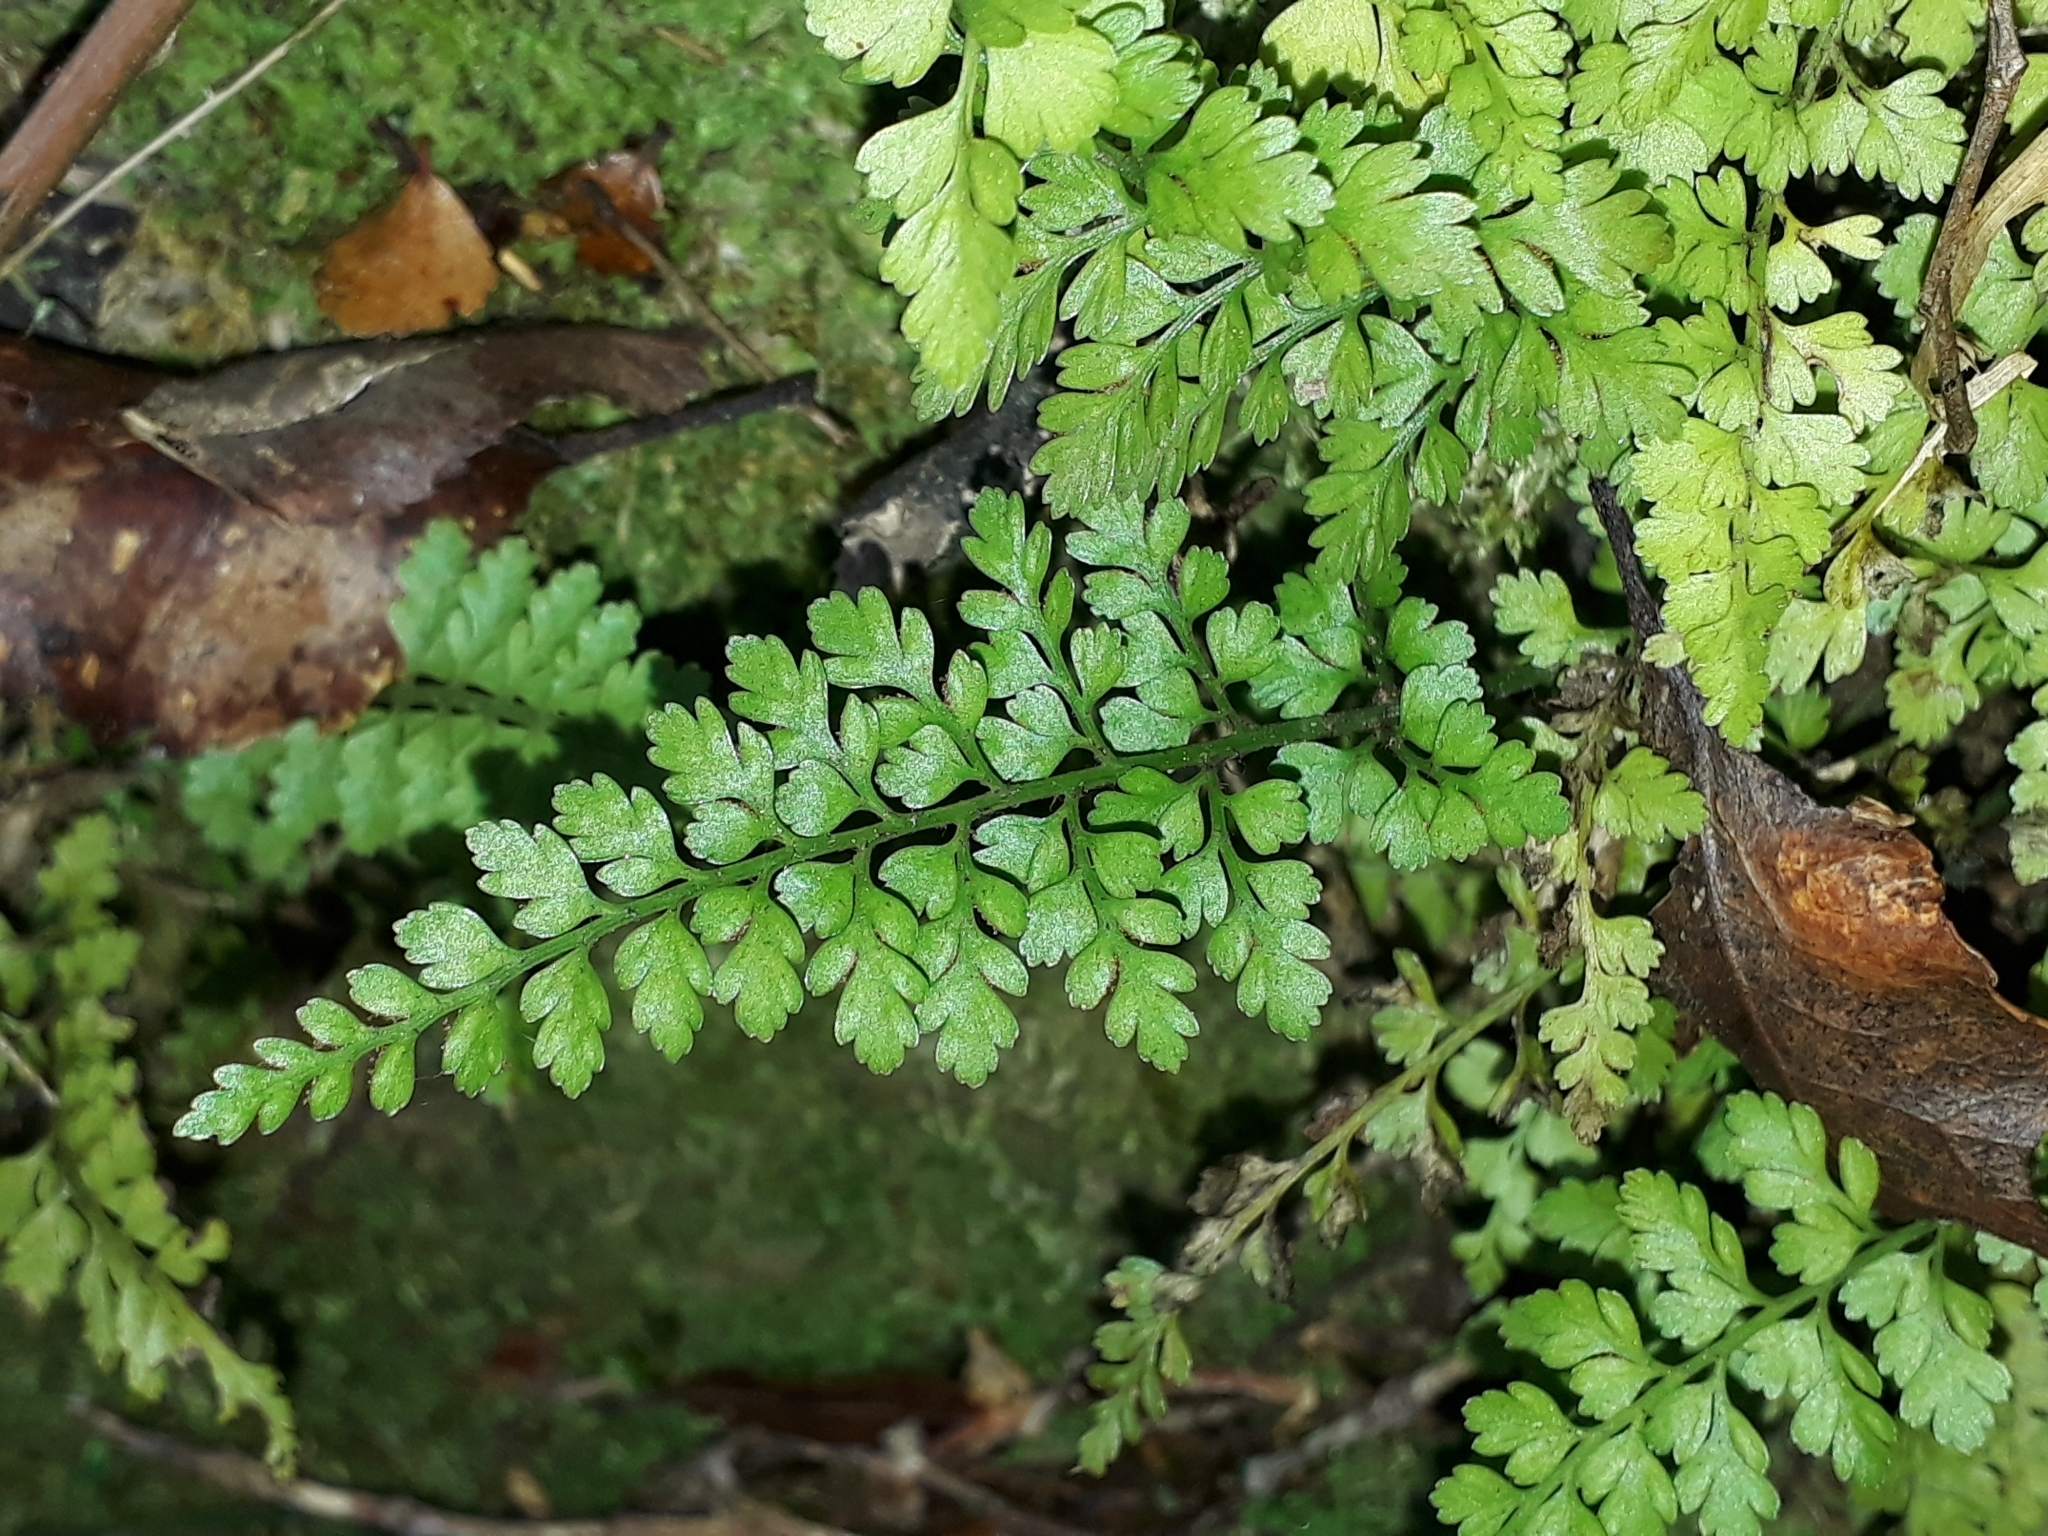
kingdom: Plantae
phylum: Tracheophyta
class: Polypodiopsida
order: Polypodiales
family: Aspleniaceae
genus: Asplenium
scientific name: Asplenium hookerianum
